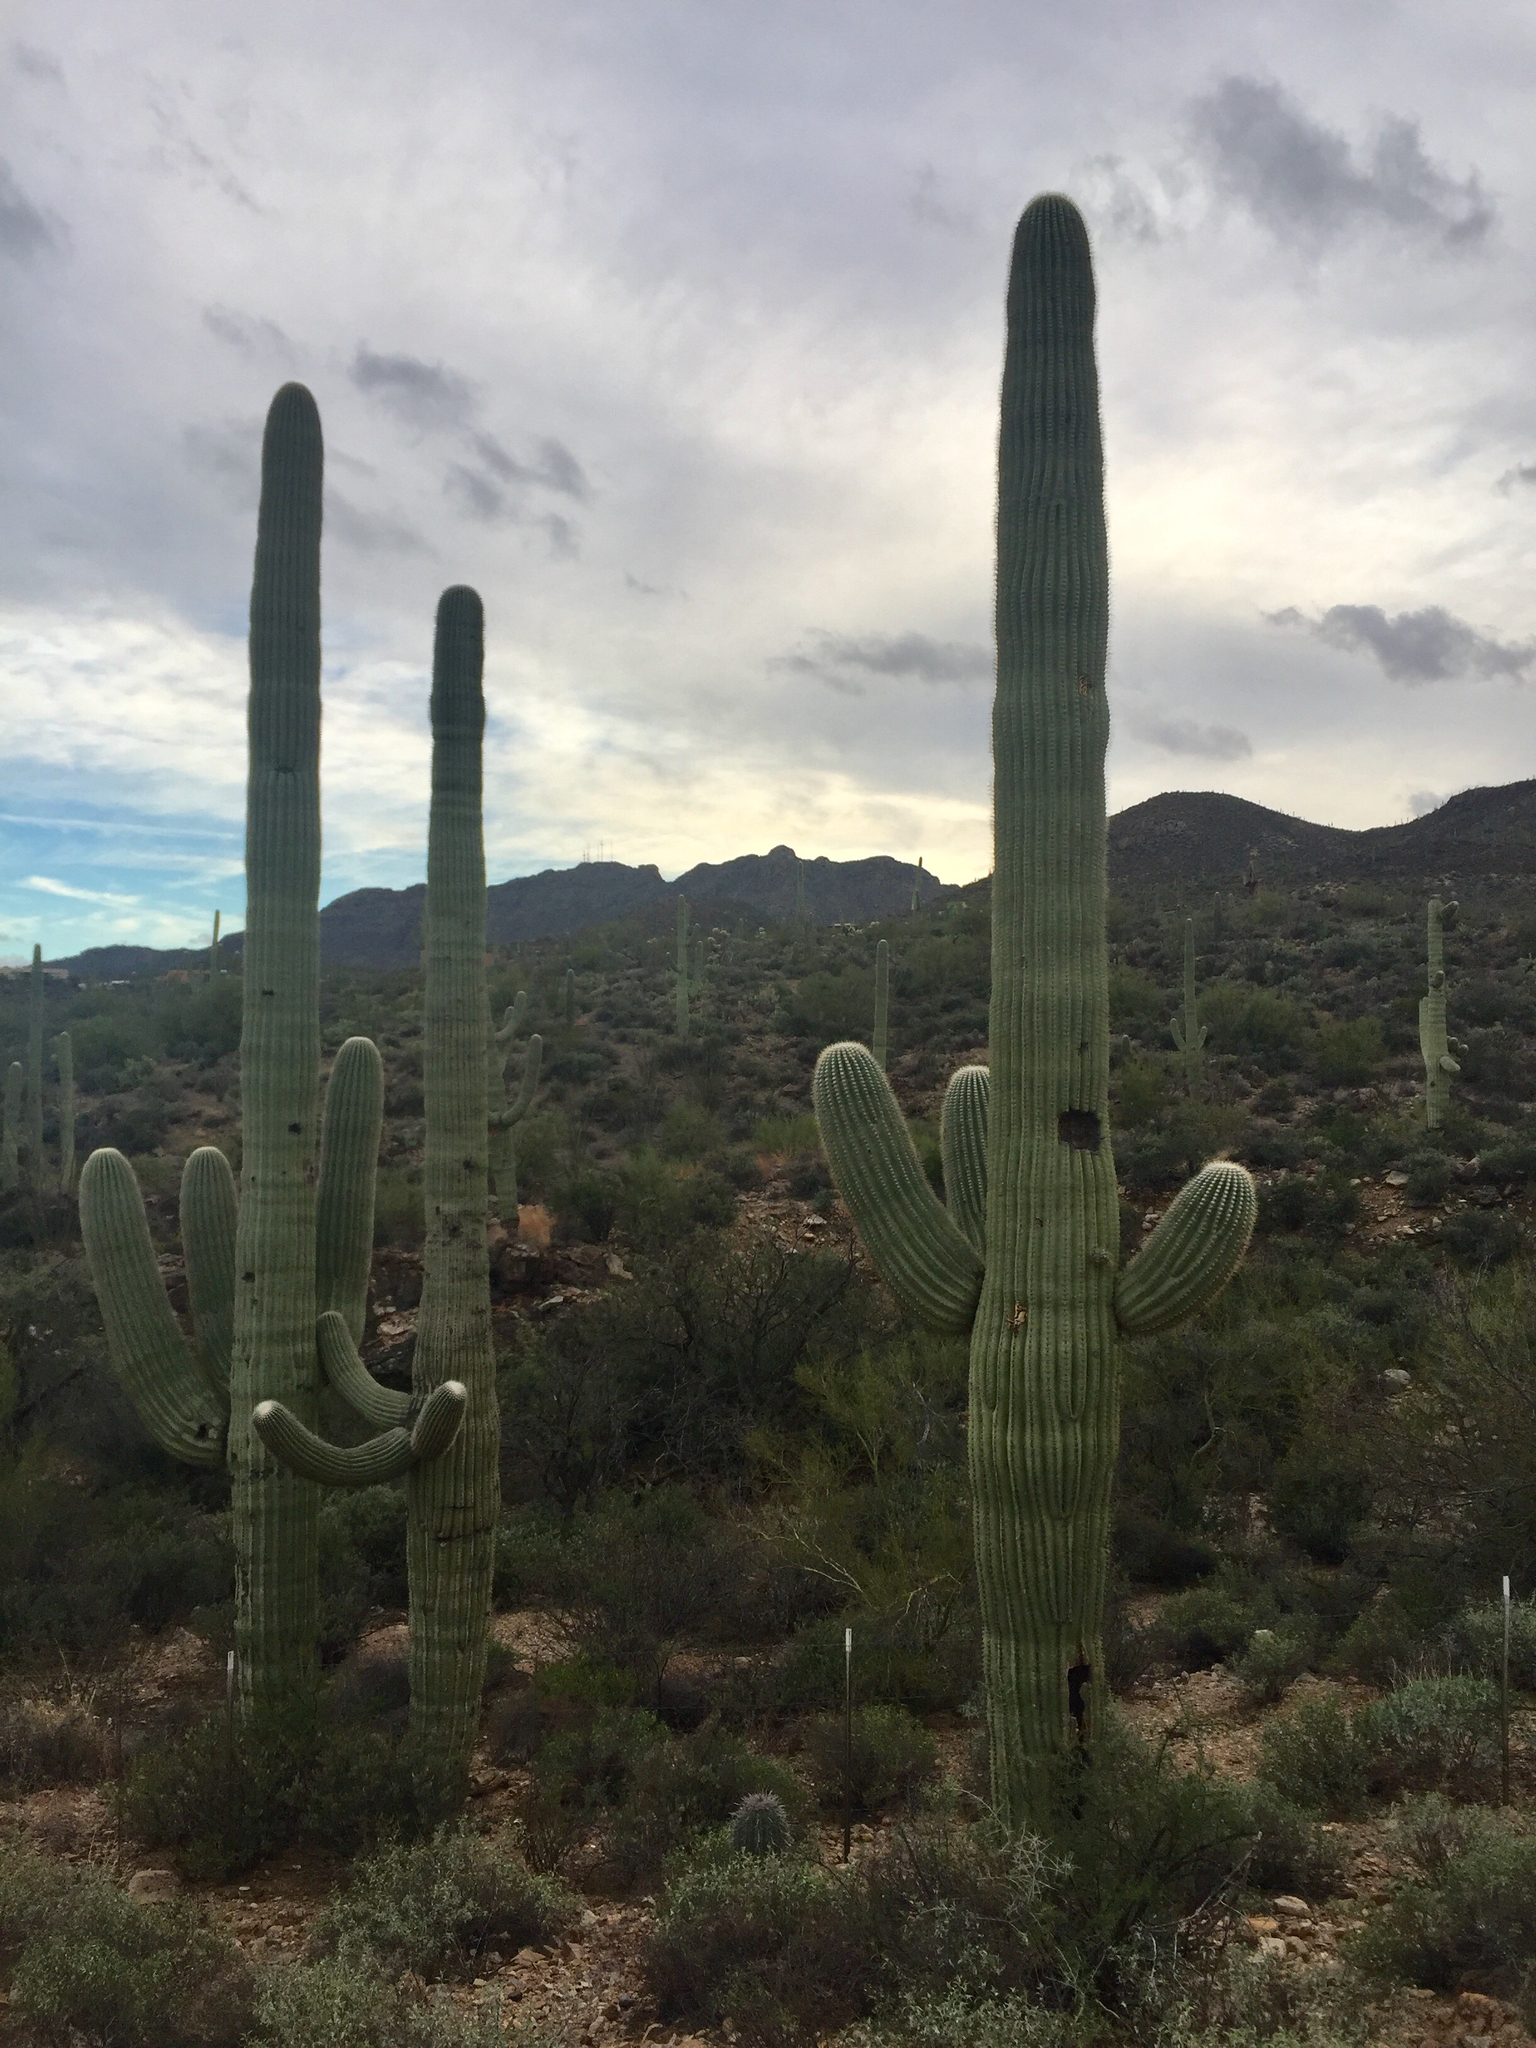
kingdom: Plantae
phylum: Tracheophyta
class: Magnoliopsida
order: Caryophyllales
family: Cactaceae
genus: Carnegiea
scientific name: Carnegiea gigantea
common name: Saguaro
